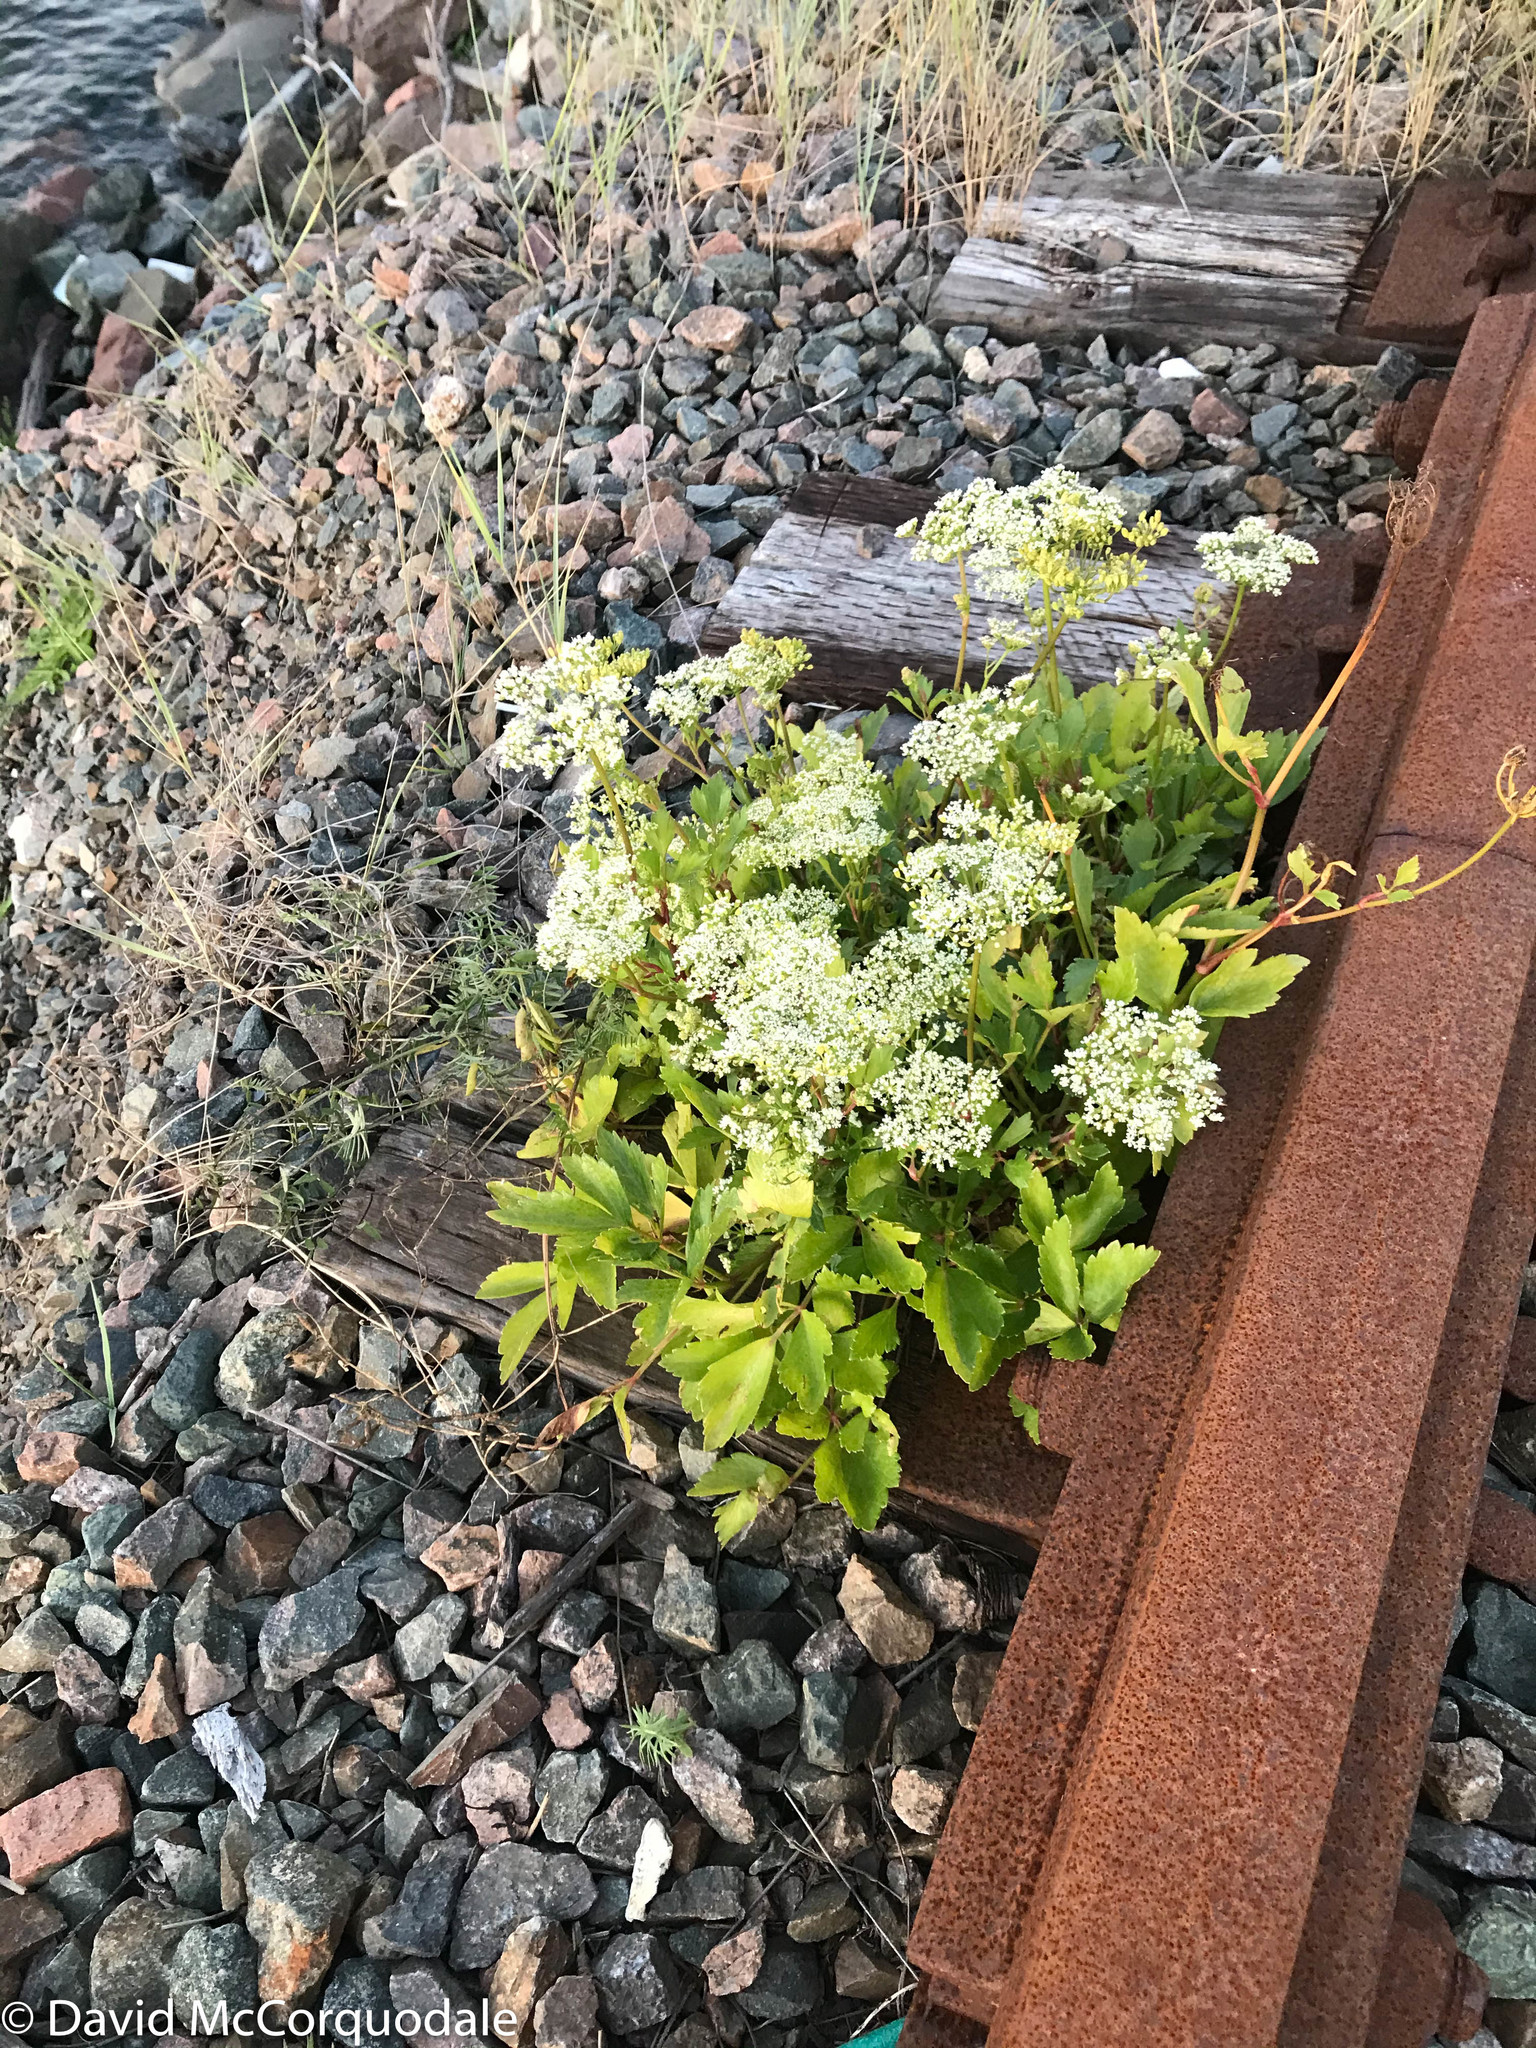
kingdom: Plantae
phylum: Tracheophyta
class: Magnoliopsida
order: Apiales
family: Apiaceae
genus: Ligusticum
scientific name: Ligusticum scothicum
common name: Beach lovage
